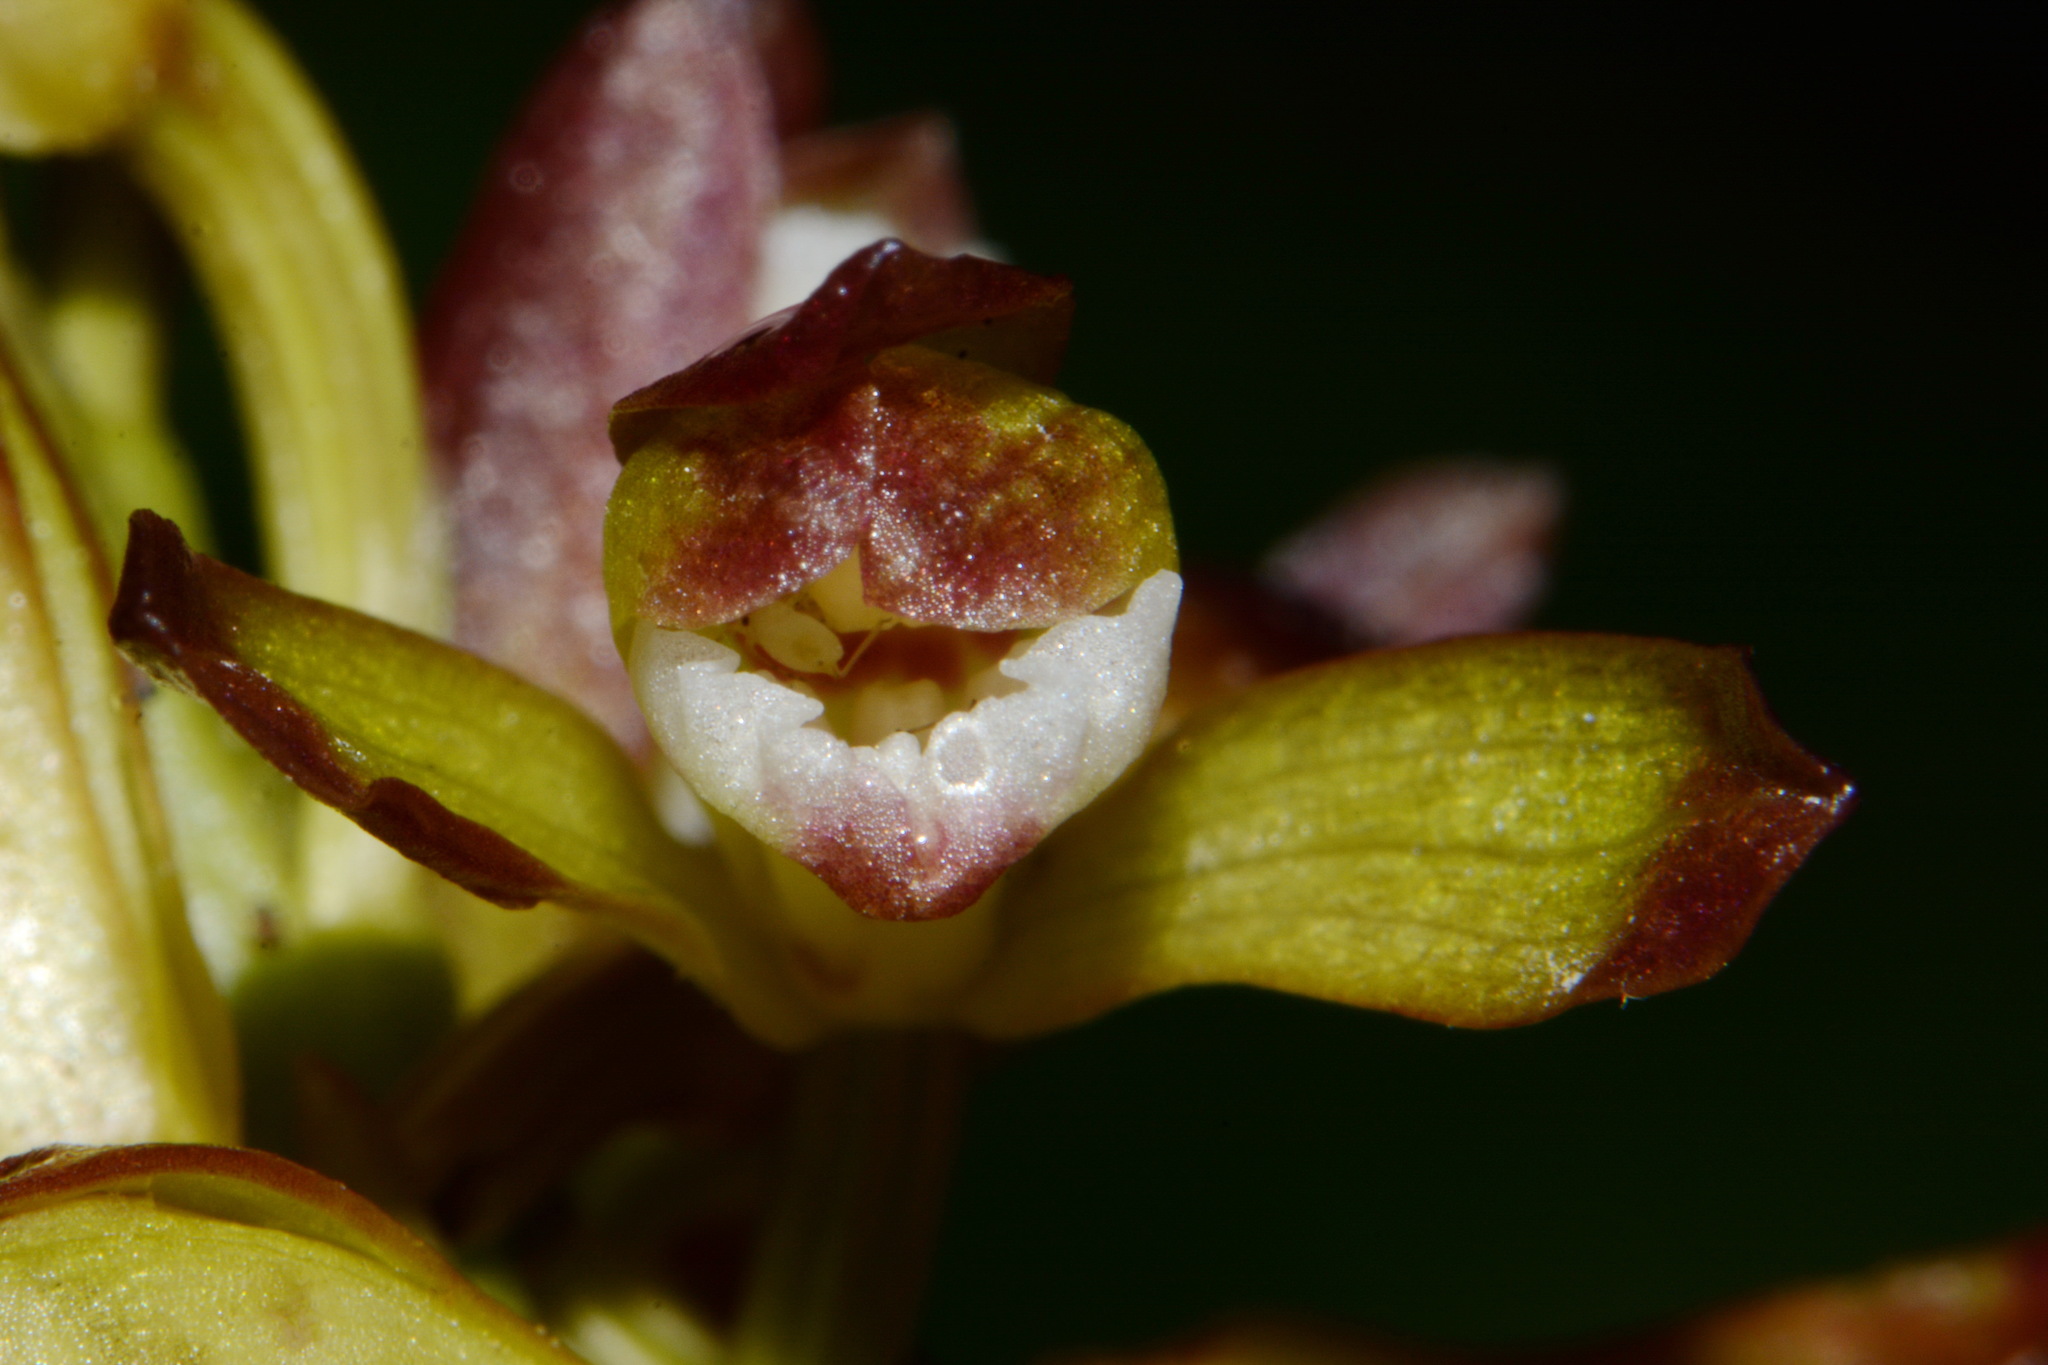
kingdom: Plantae
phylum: Tracheophyta
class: Liliopsida
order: Asparagales
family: Orchidaceae
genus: Aplectrum
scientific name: Aplectrum hyemale
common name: Adam-and-eve
